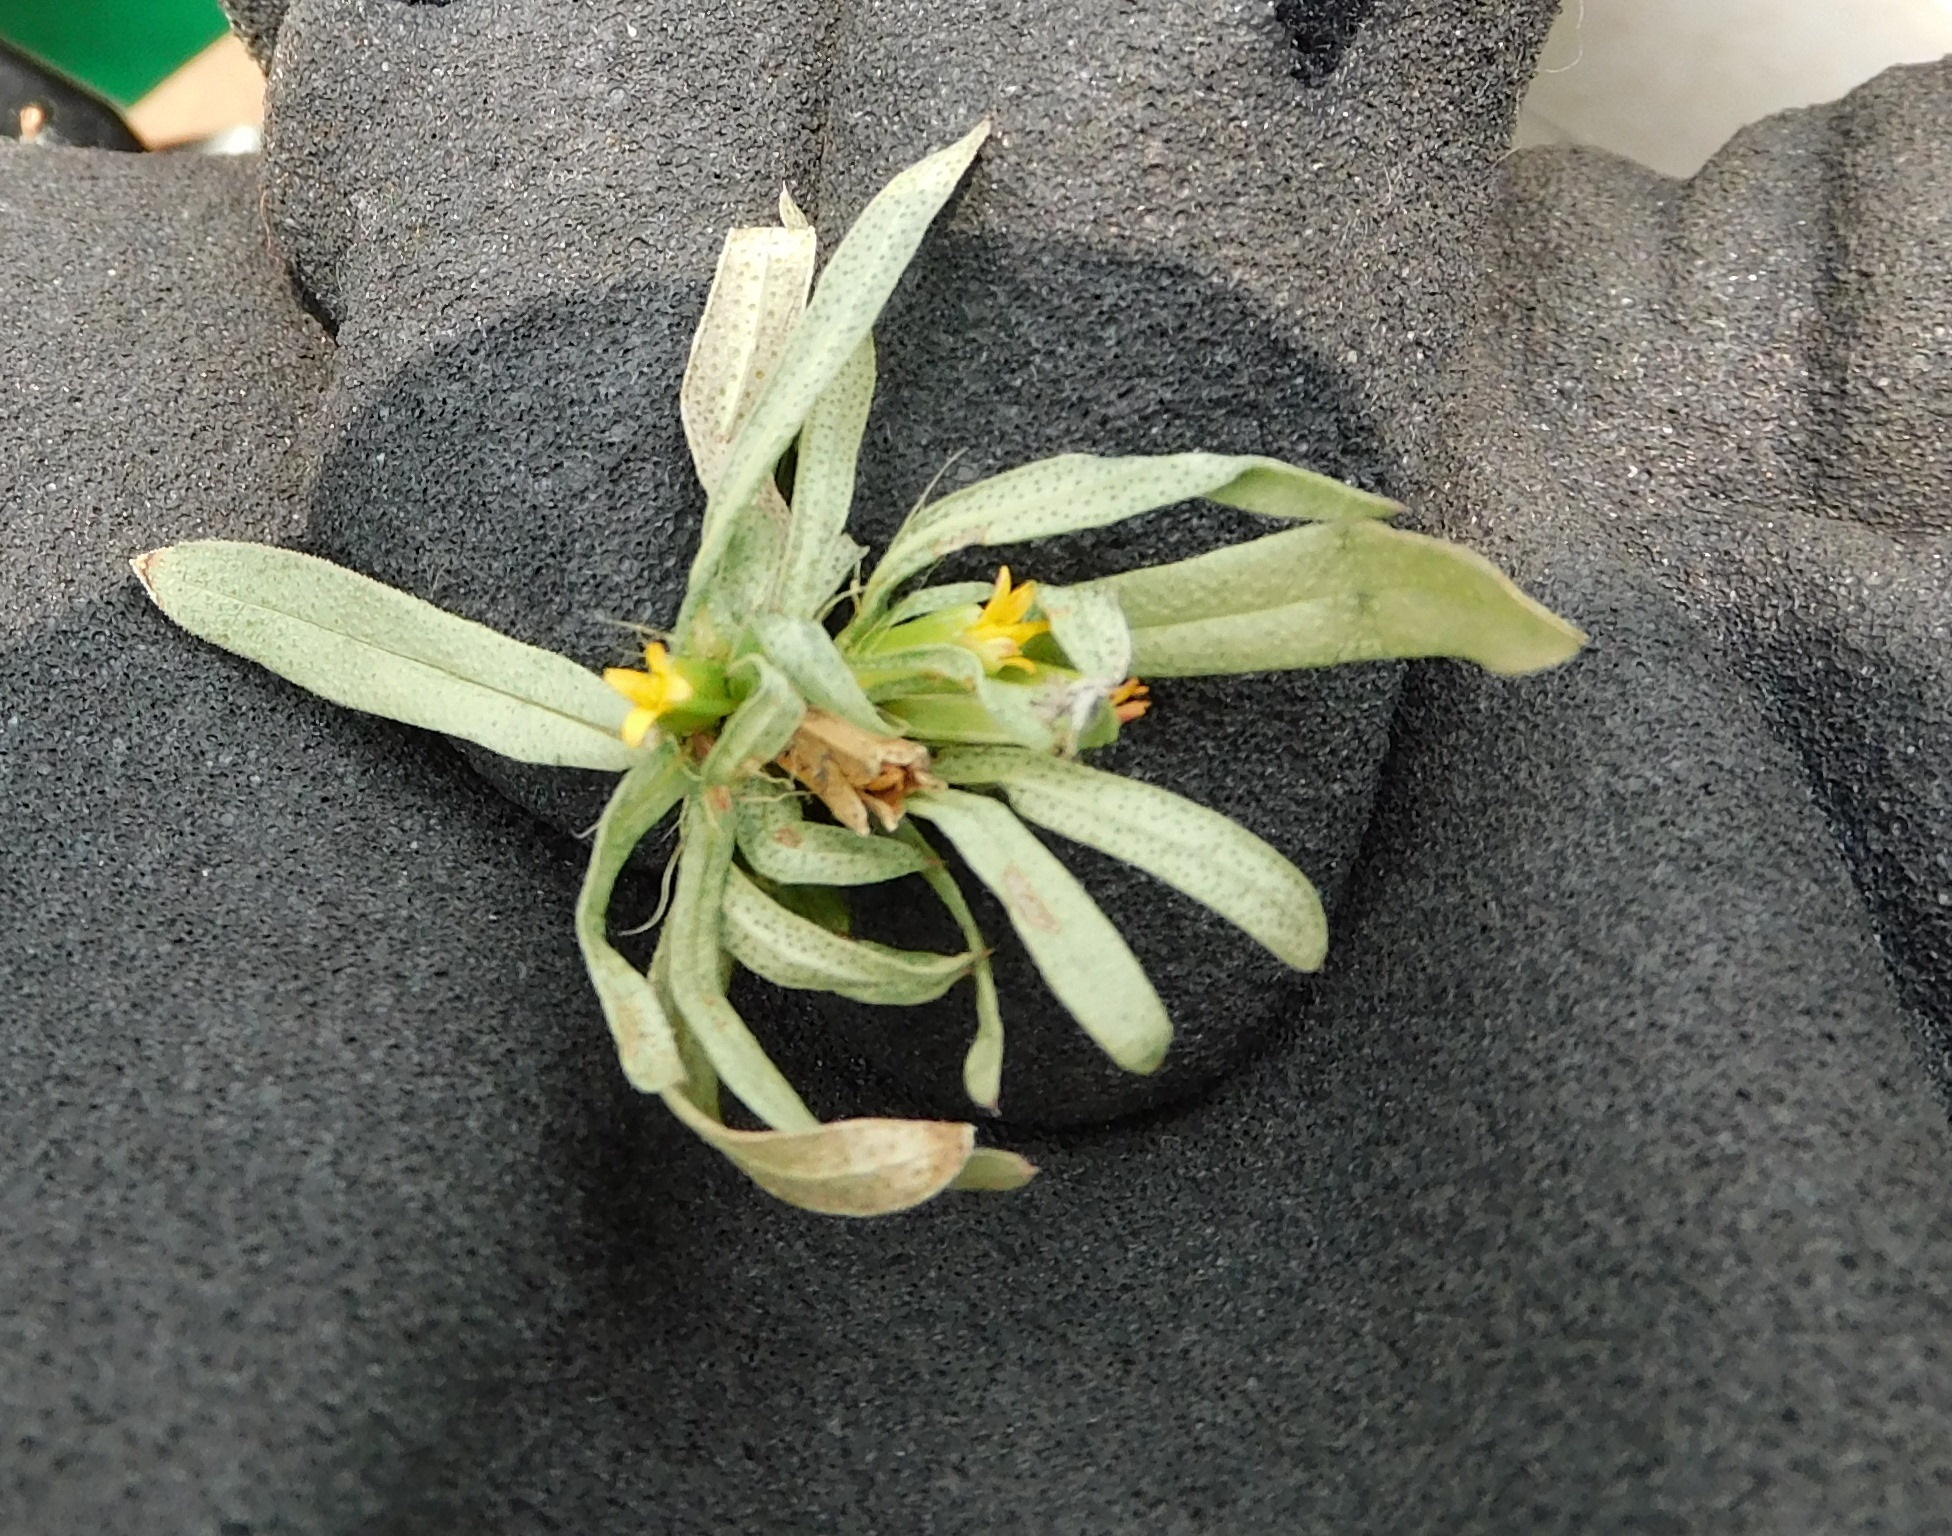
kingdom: Plantae
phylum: Tracheophyta
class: Magnoliopsida
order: Asterales
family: Asteraceae
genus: Pectis
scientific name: Pectis prostrata
